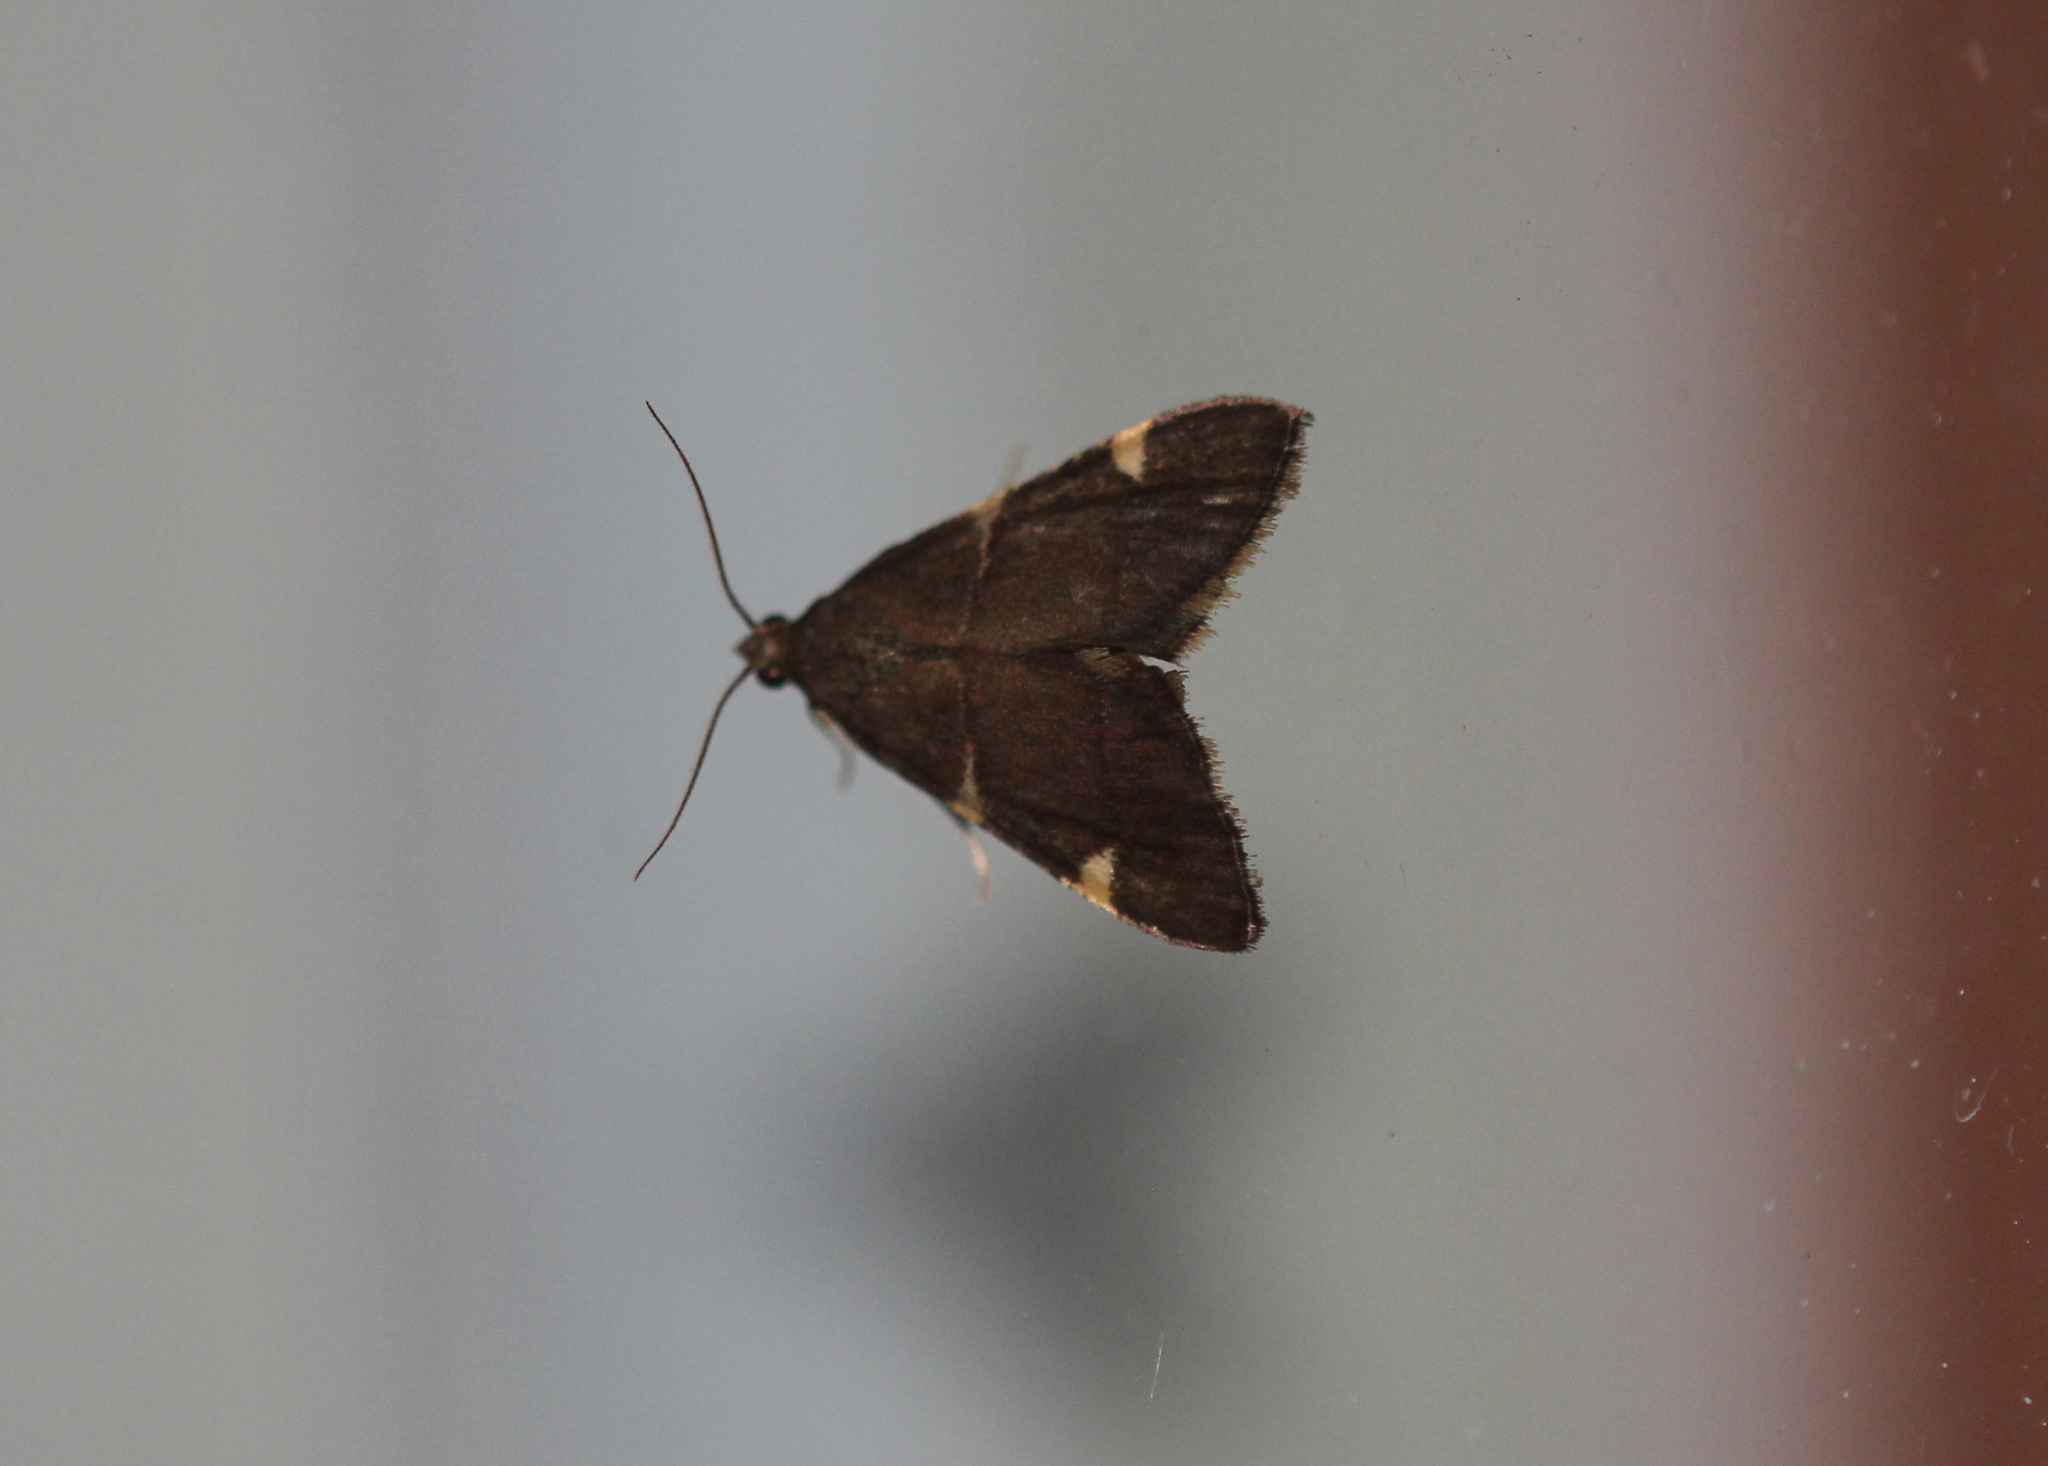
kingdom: Animalia
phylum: Arthropoda
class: Insecta
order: Lepidoptera
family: Pyralidae
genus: Hypsopygia
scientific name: Hypsopygia thymetusalis
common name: Spruce needleworm moth
